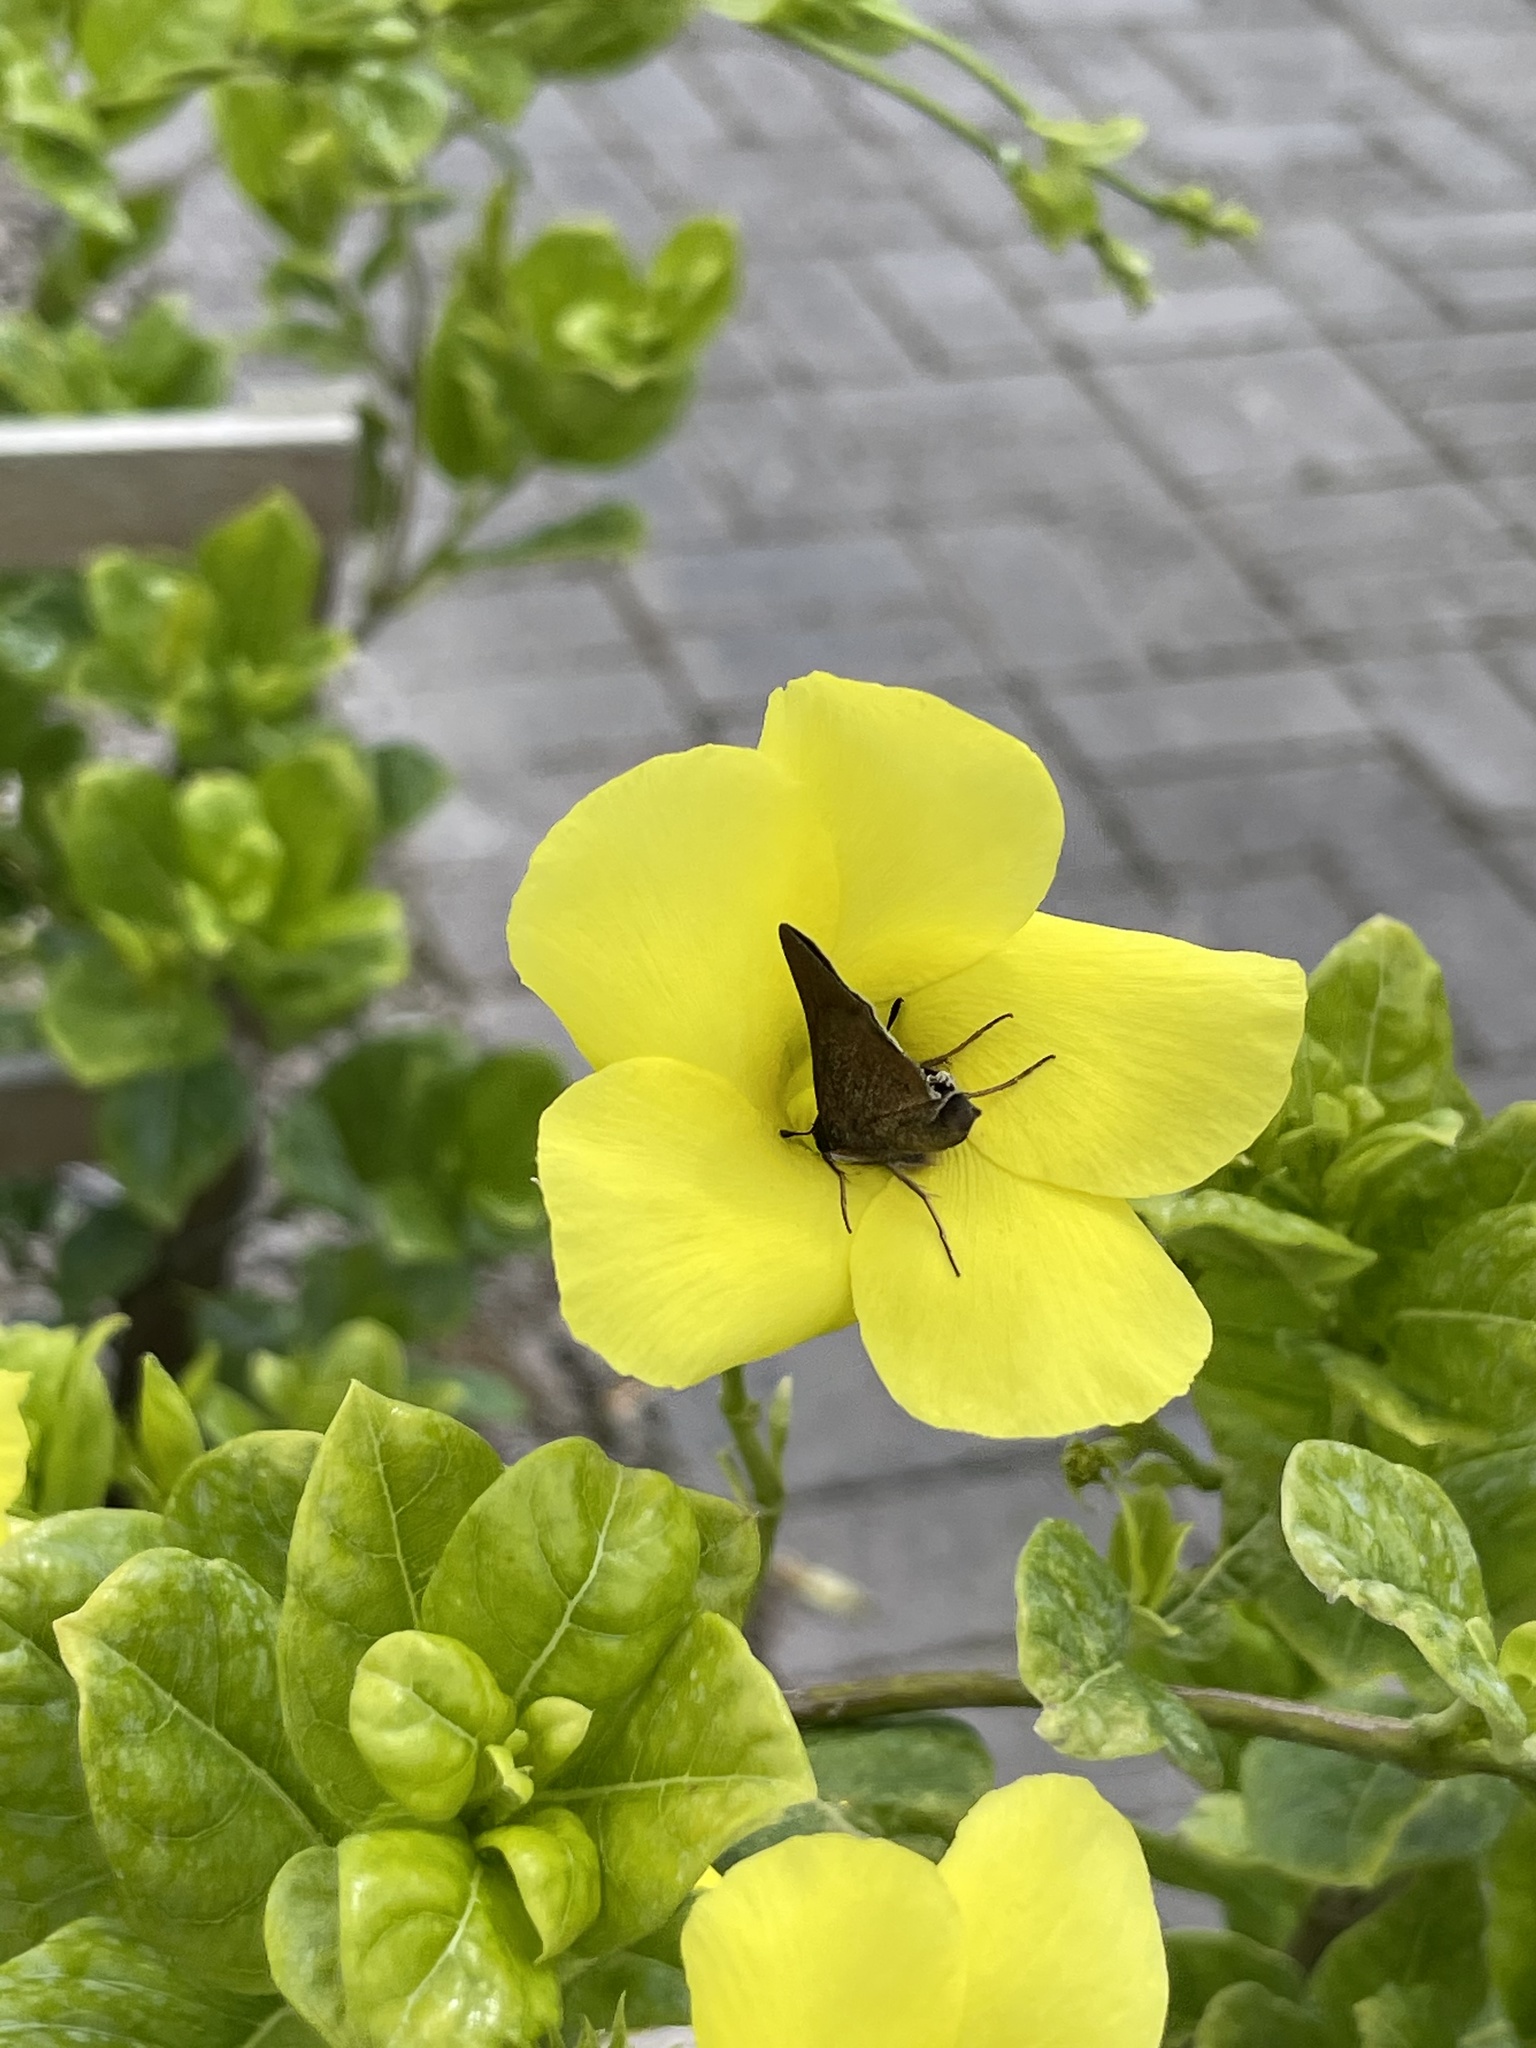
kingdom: Animalia
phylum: Arthropoda
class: Insecta
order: Lepidoptera
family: Hesperiidae
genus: Asbolis
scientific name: Asbolis capucinus
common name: Monk skipper
